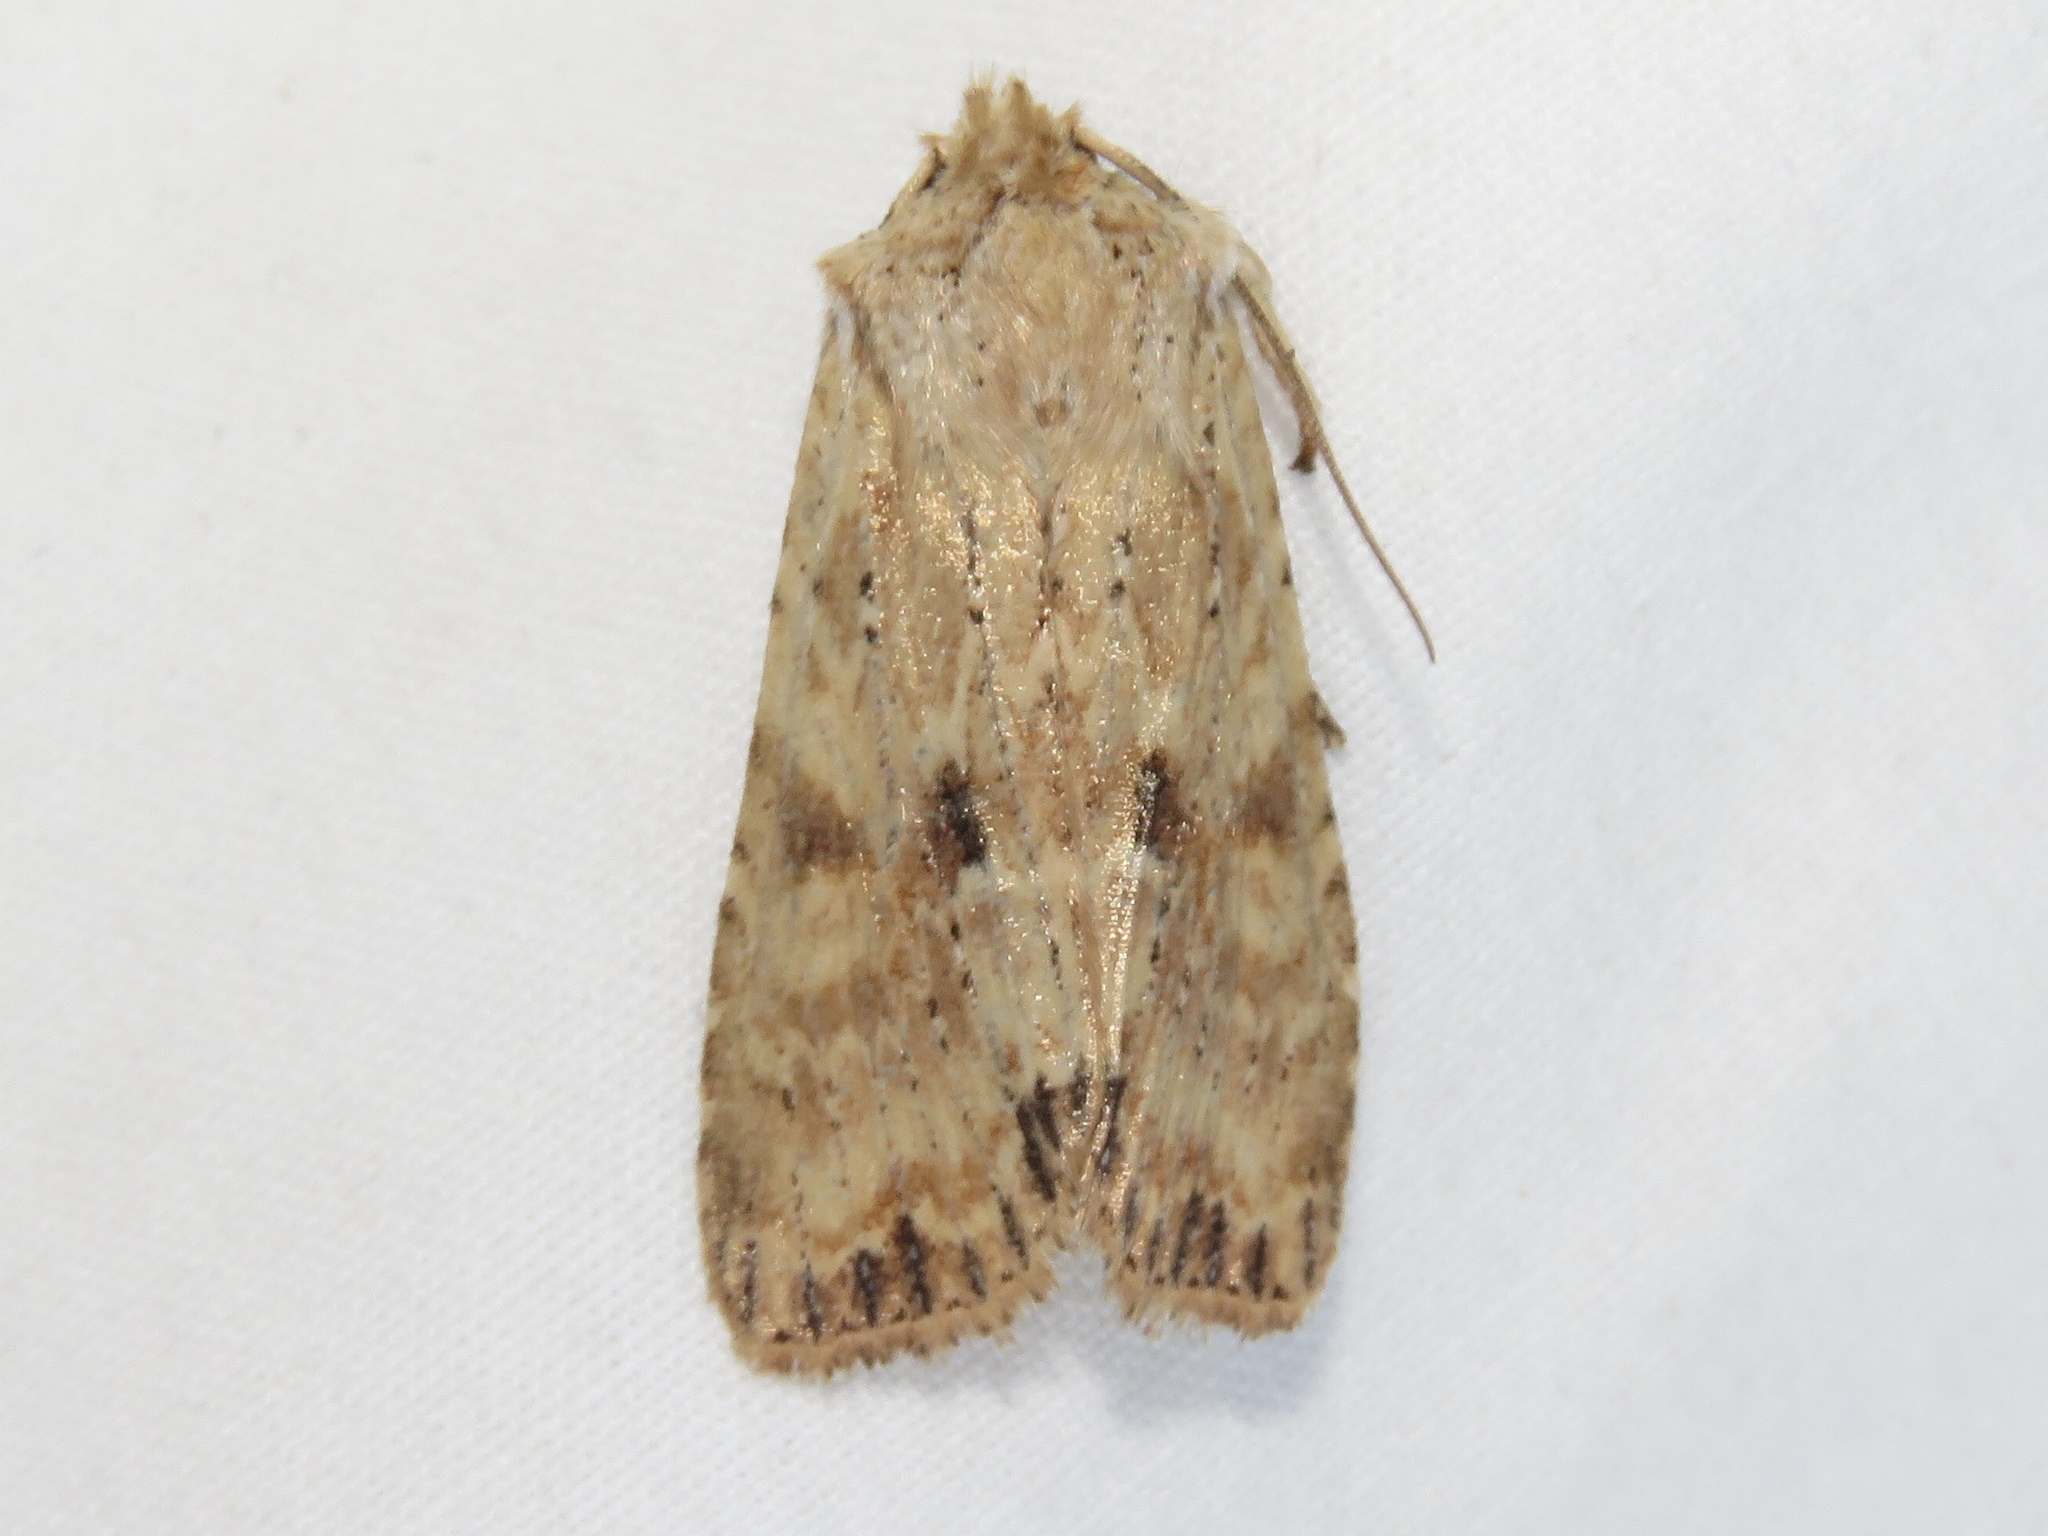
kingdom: Animalia
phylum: Arthropoda
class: Insecta
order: Lepidoptera
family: Noctuidae
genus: Lithophane
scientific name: Lithophane innominata
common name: Nameless pinion moth
